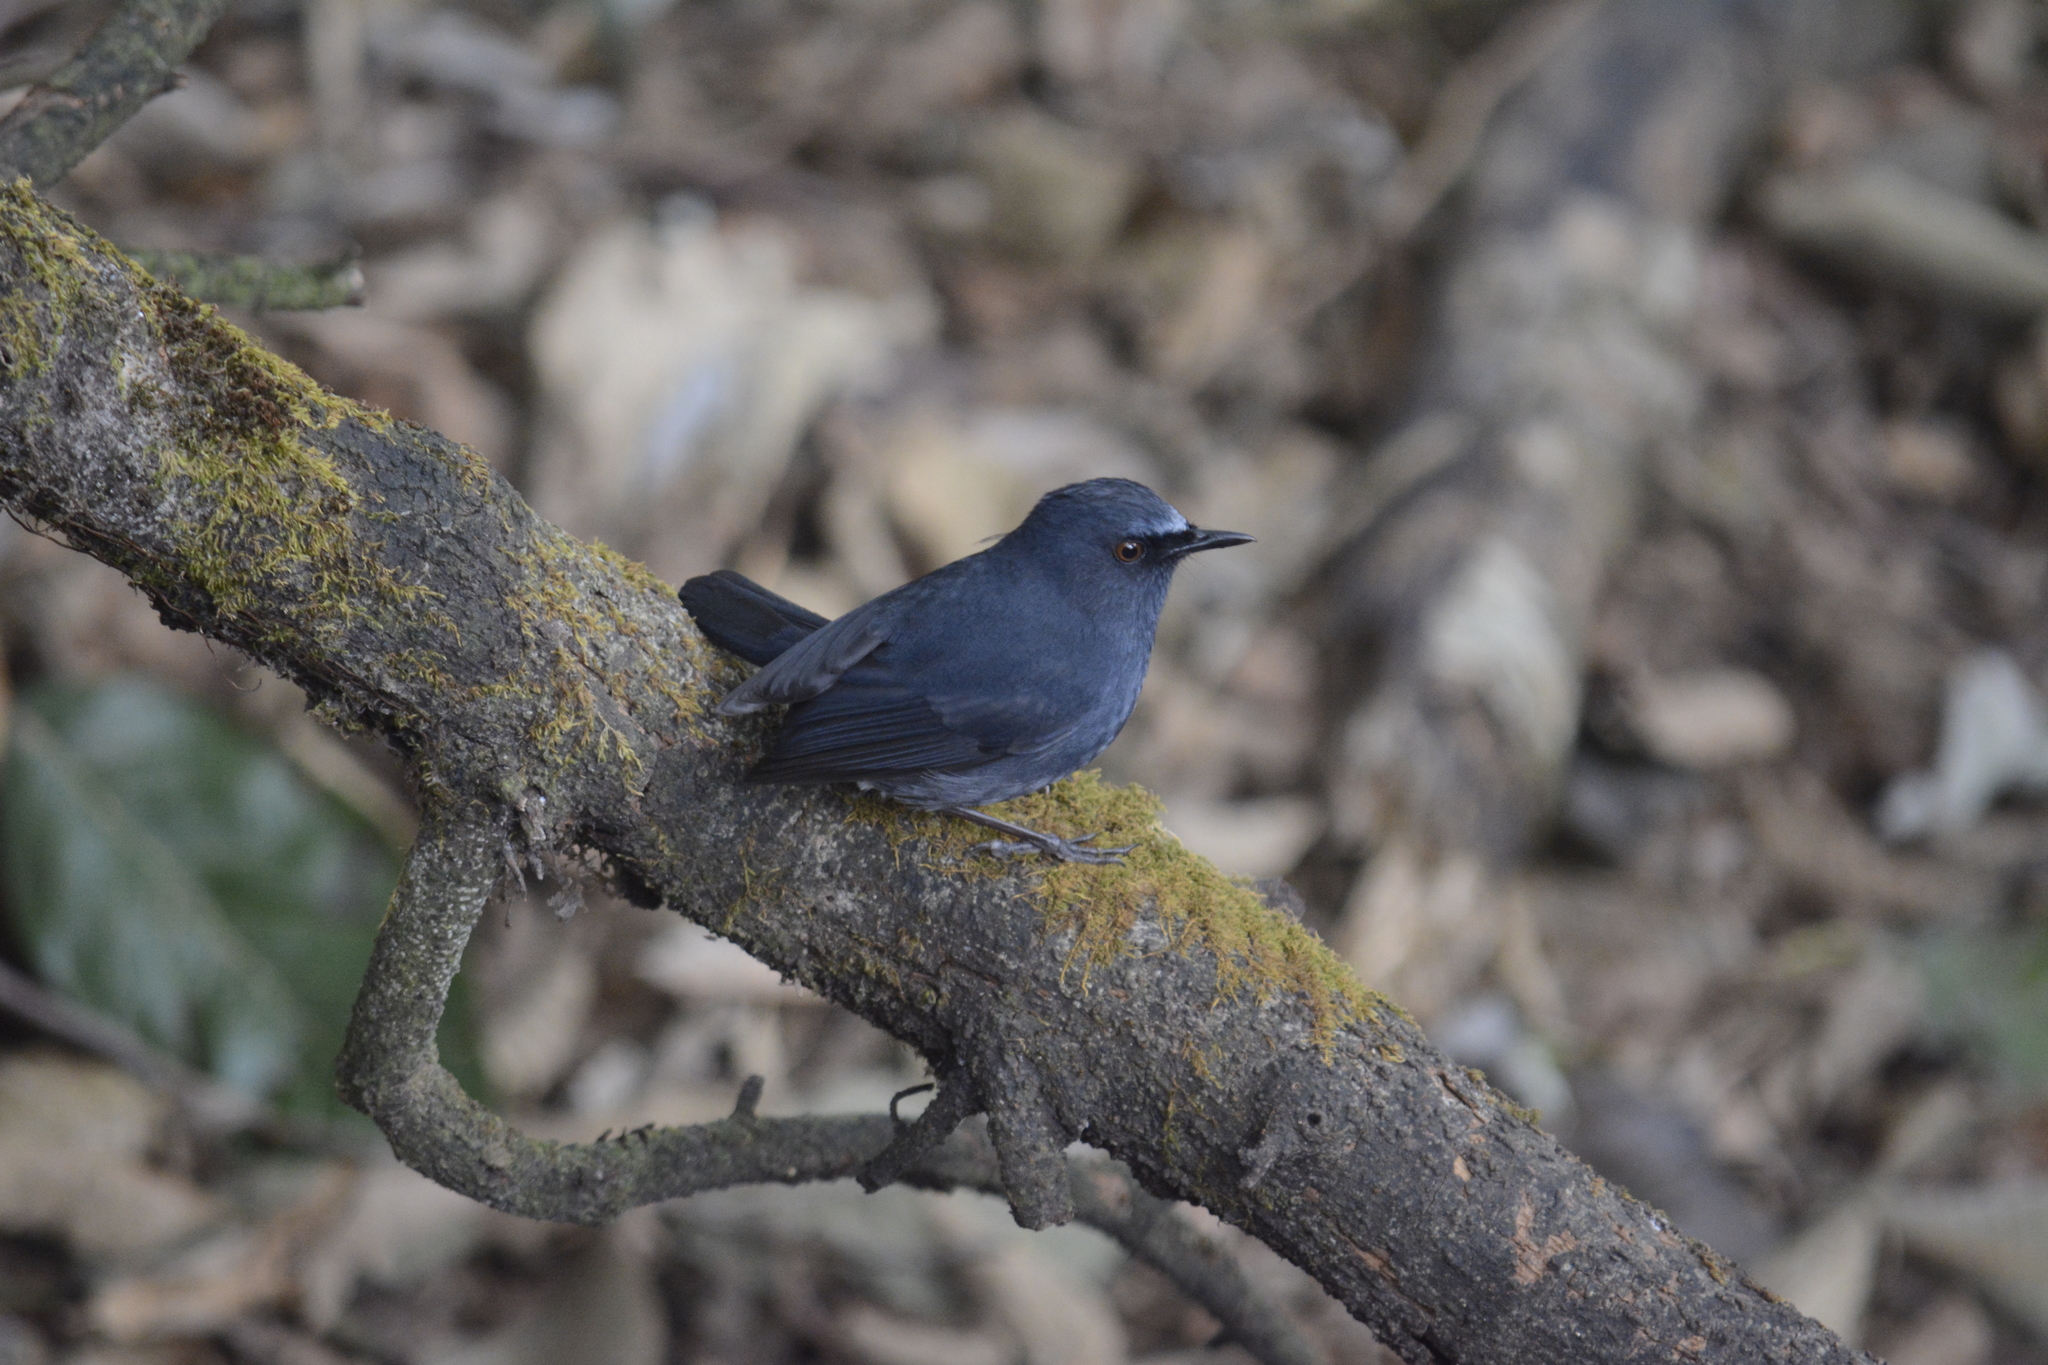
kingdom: Animalia
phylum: Chordata
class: Aves
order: Passeriformes
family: Muscicapidae
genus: Myiomela
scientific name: Myiomela albiventris
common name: White-bellied blue-robin
